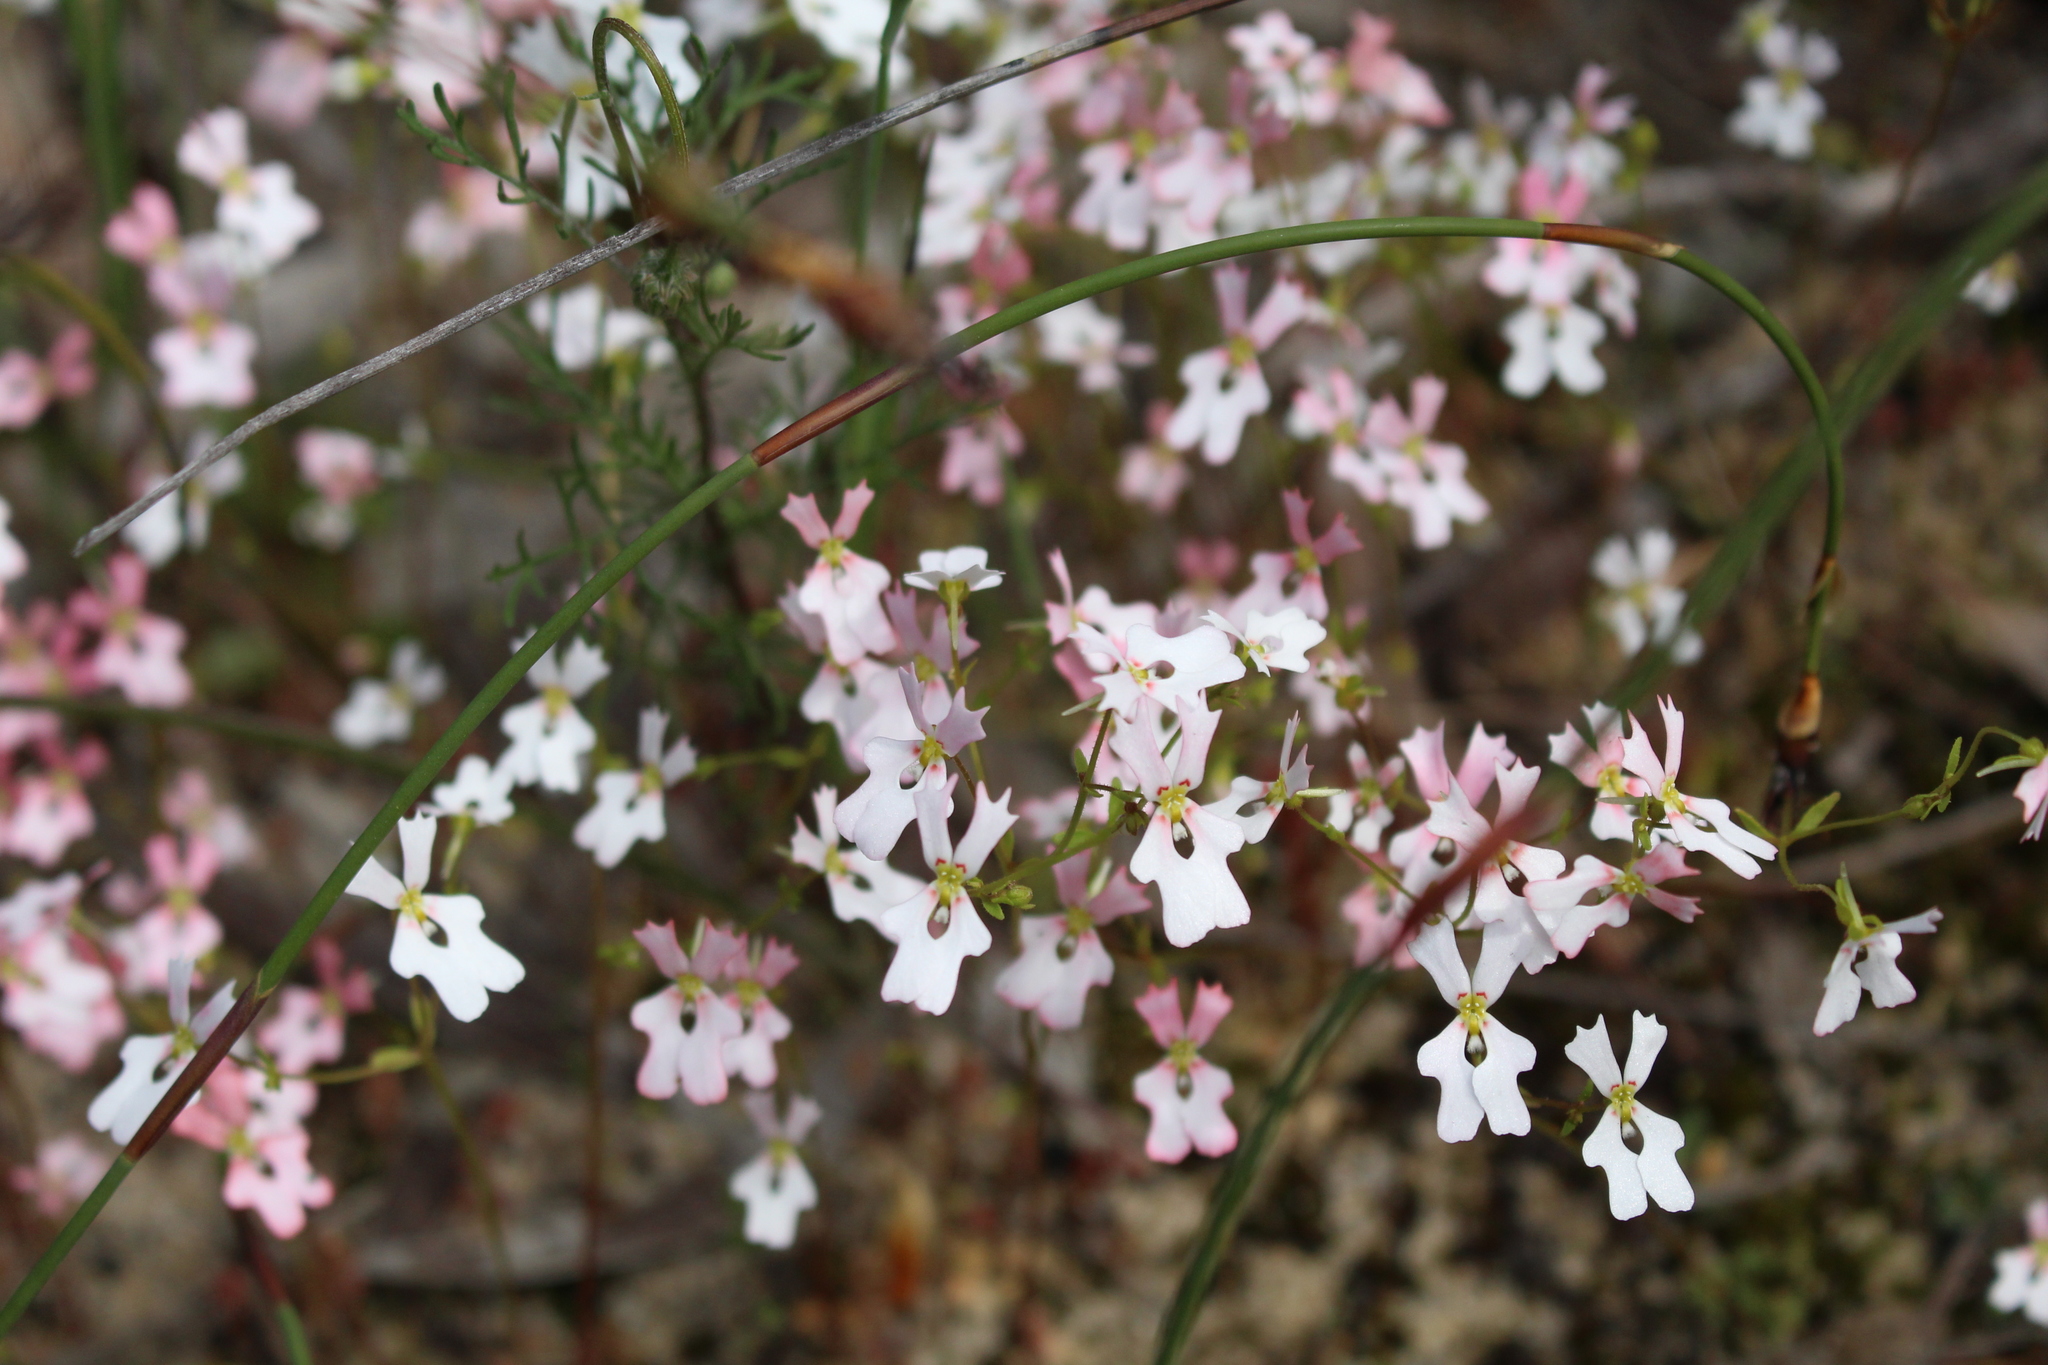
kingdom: Plantae
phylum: Tracheophyta
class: Magnoliopsida
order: Asterales
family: Stylidiaceae
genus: Stylidium
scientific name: Stylidium androsaceum
